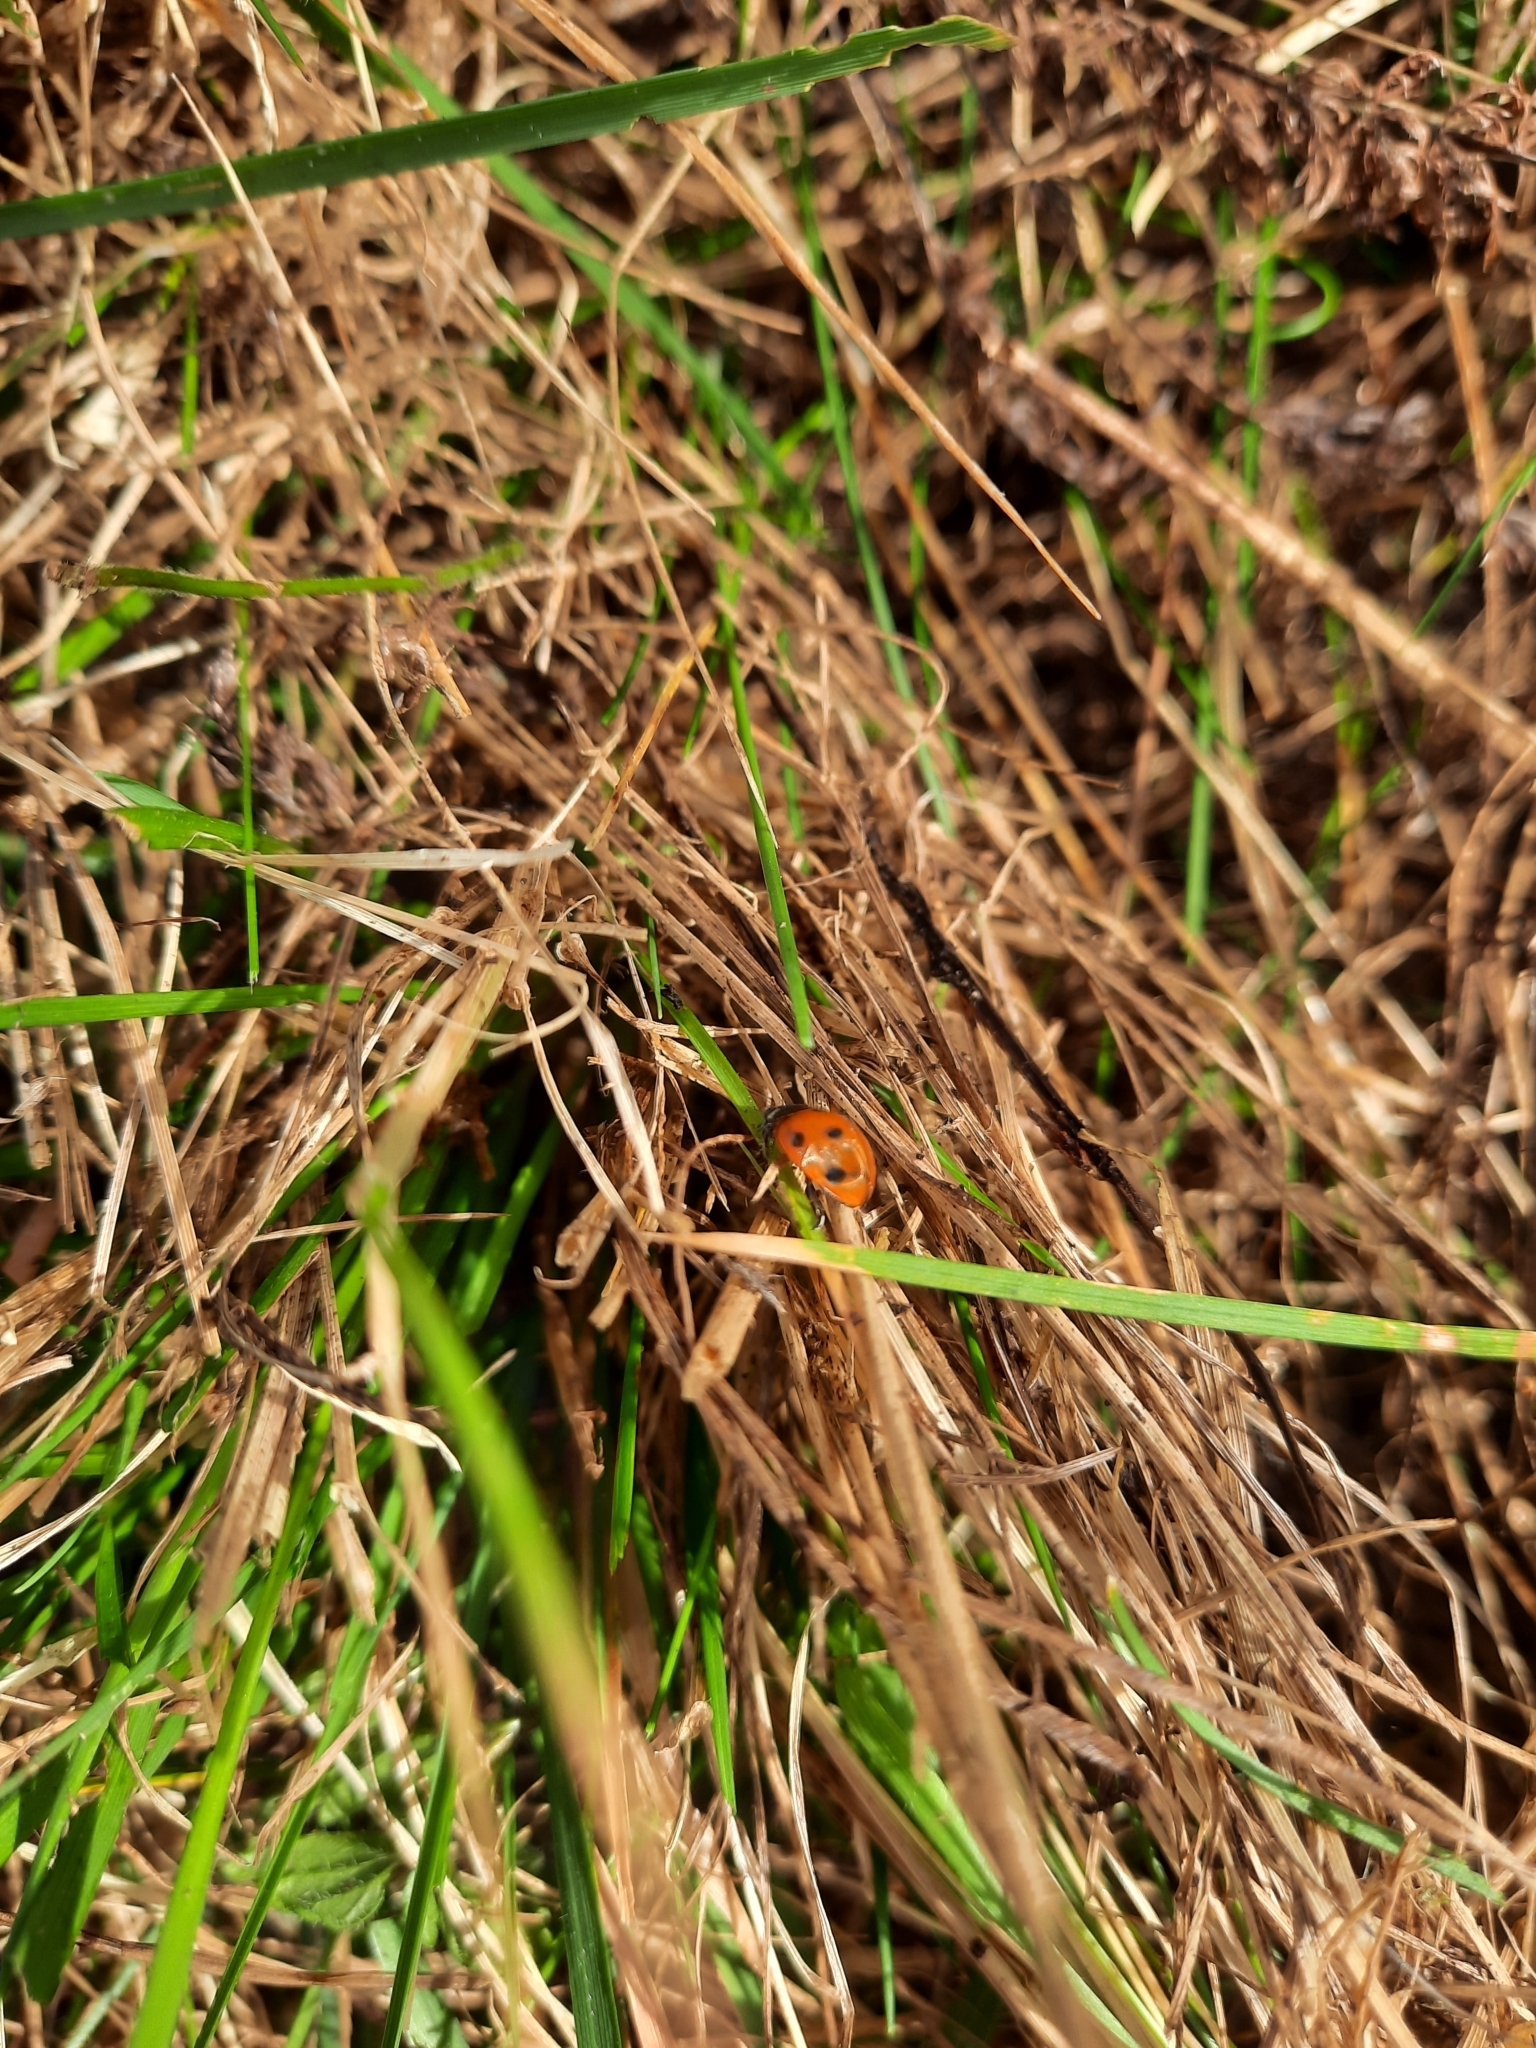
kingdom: Animalia
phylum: Arthropoda
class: Insecta
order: Coleoptera
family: Coccinellidae
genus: Coccinella
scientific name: Coccinella septempunctata
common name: Sevenspotted lady beetle
